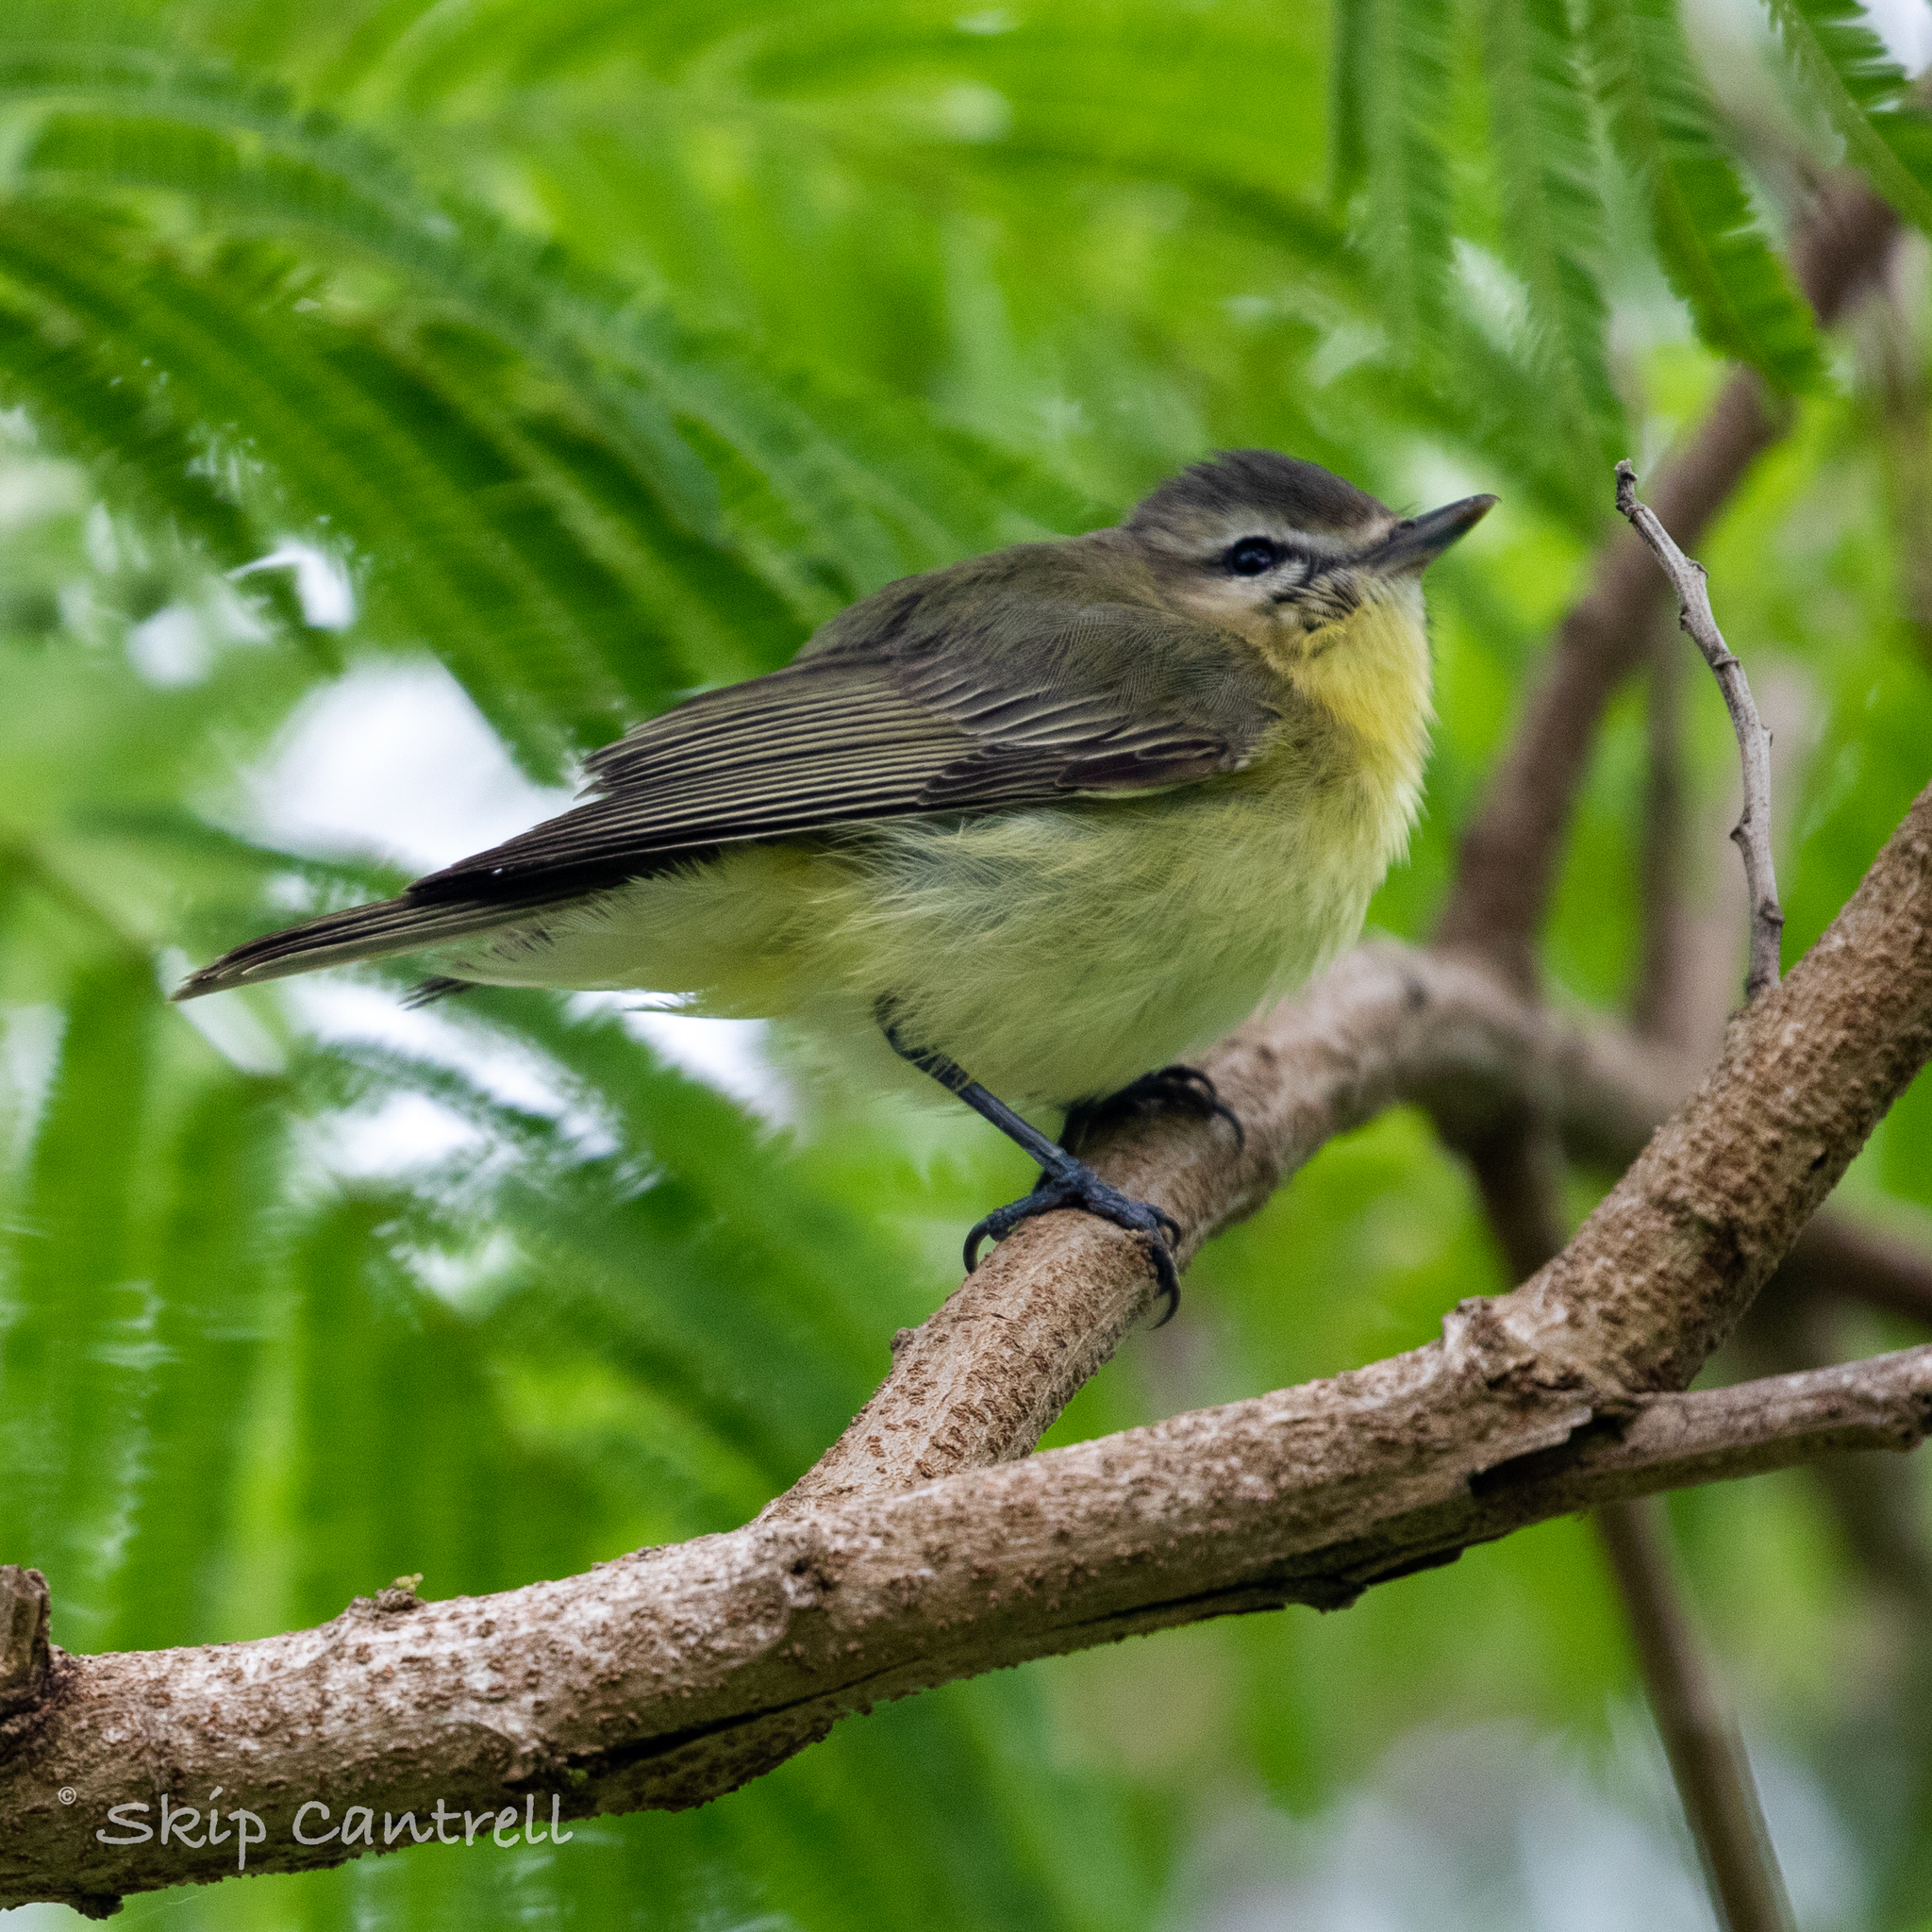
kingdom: Animalia
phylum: Chordata
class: Aves
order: Passeriformes
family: Vireonidae
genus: Vireo
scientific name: Vireo philadelphicus
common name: Philadelphia vireo
